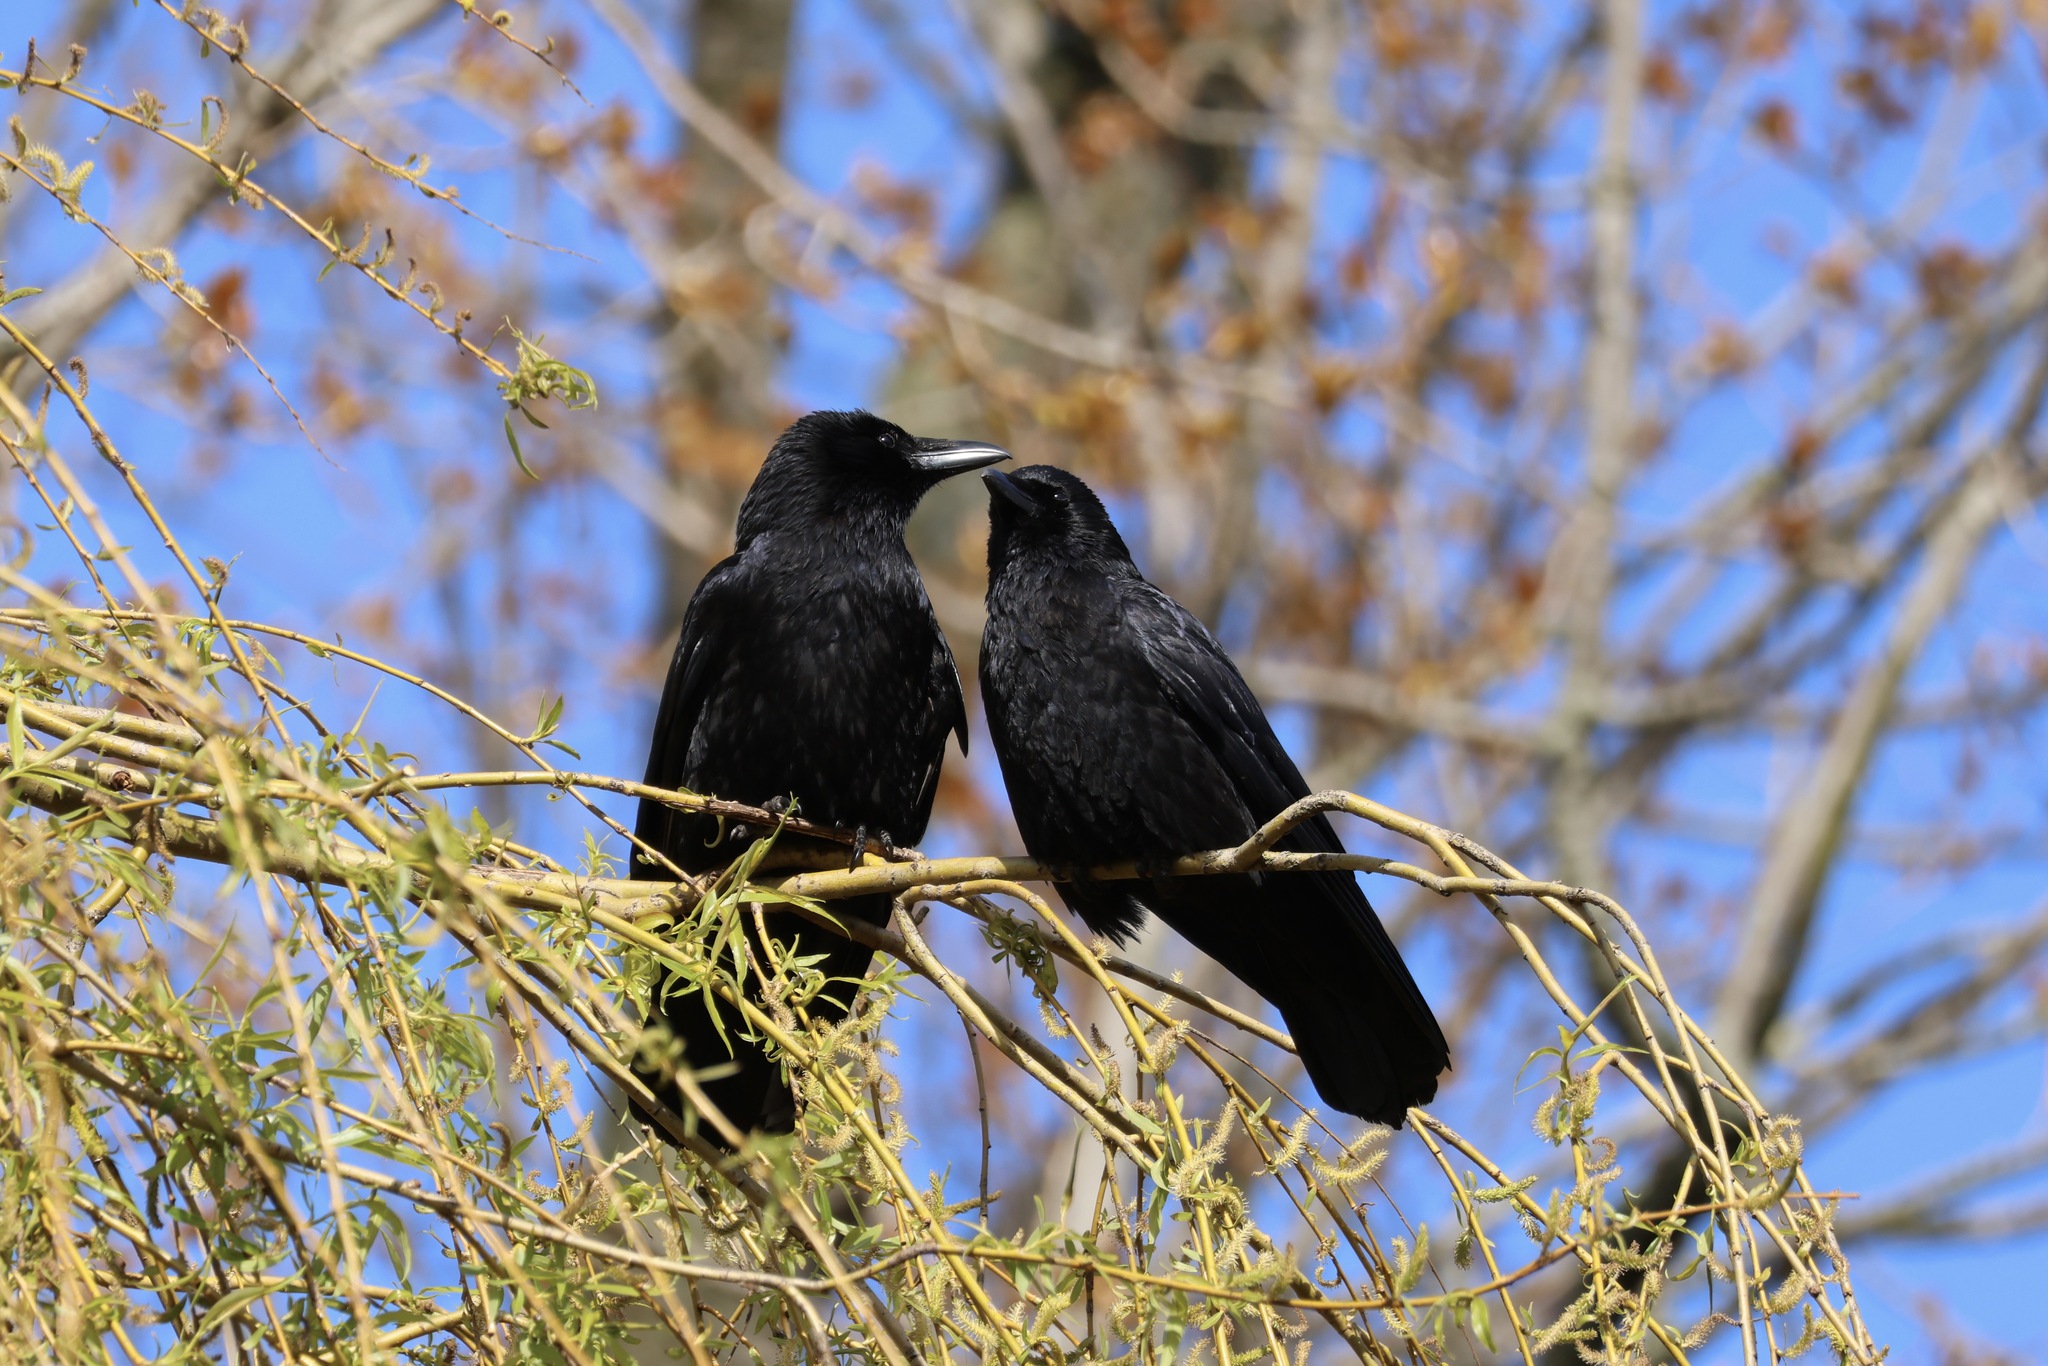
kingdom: Animalia
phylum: Chordata
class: Aves
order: Passeriformes
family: Corvidae
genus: Corvus
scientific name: Corvus corone
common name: Carrion crow
